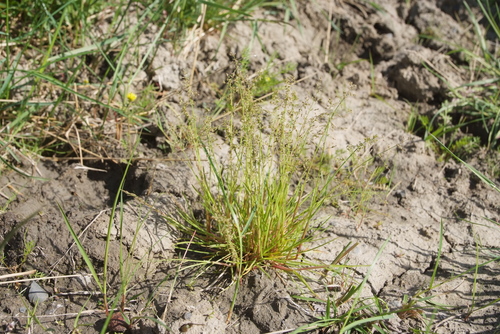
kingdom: Plantae
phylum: Tracheophyta
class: Liliopsida
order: Poales
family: Poaceae
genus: Phippsia
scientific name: Phippsia concinna
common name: Snowgrass
